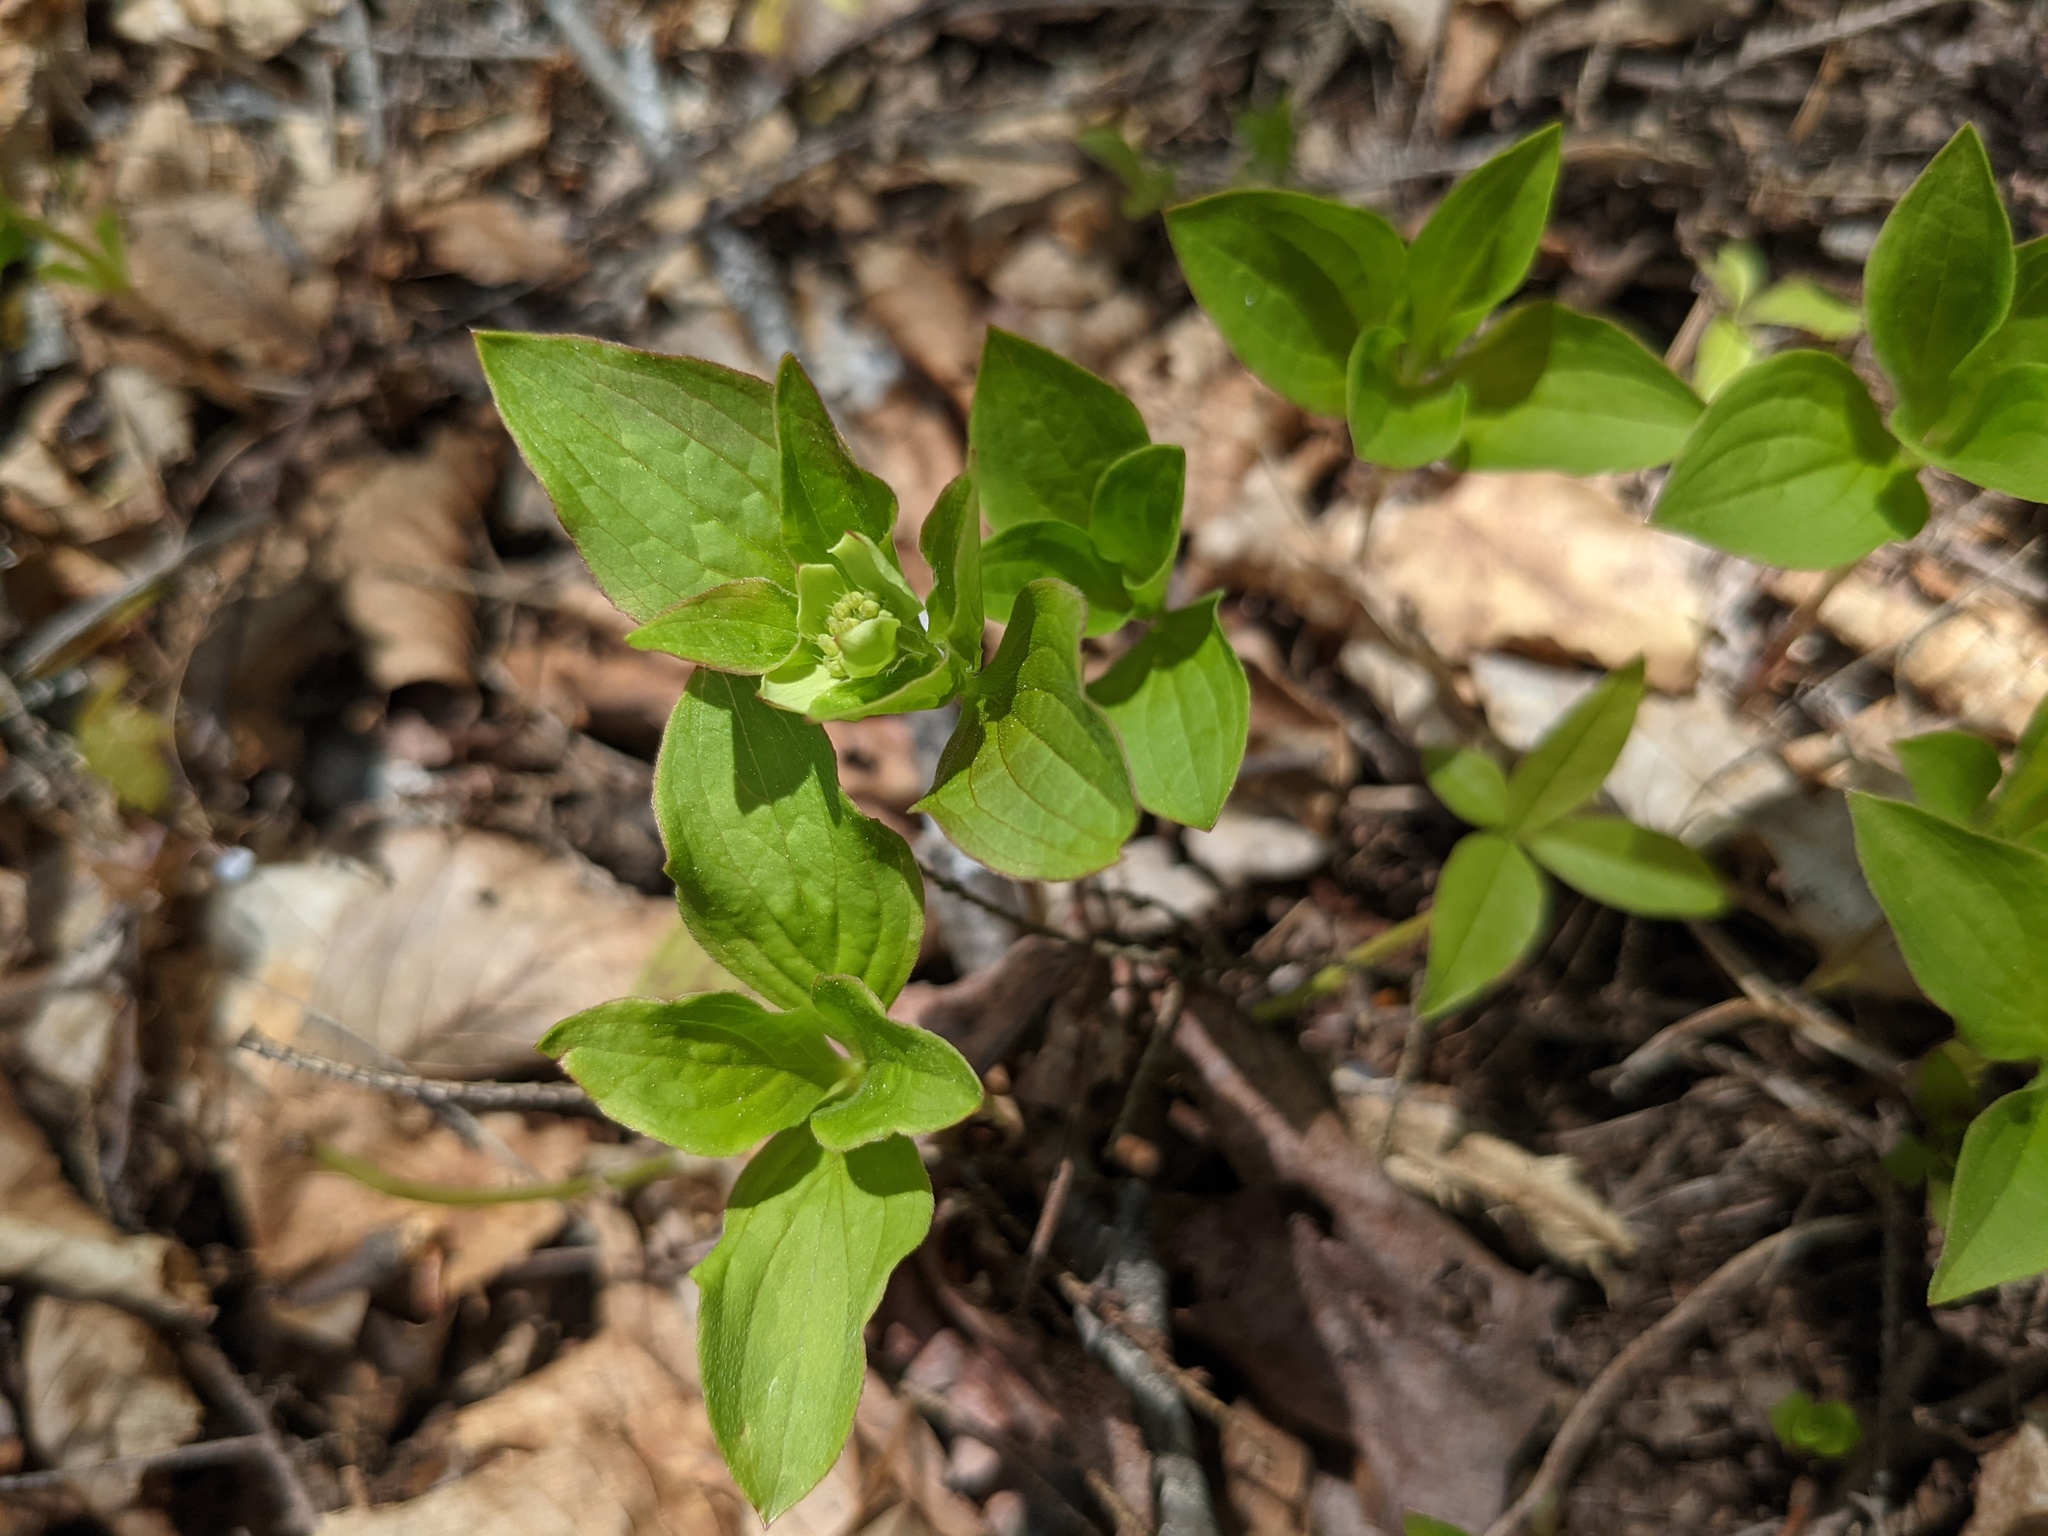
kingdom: Plantae
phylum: Tracheophyta
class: Magnoliopsida
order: Cornales
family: Cornaceae
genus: Cornus
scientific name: Cornus canadensis
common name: Creeping dogwood
